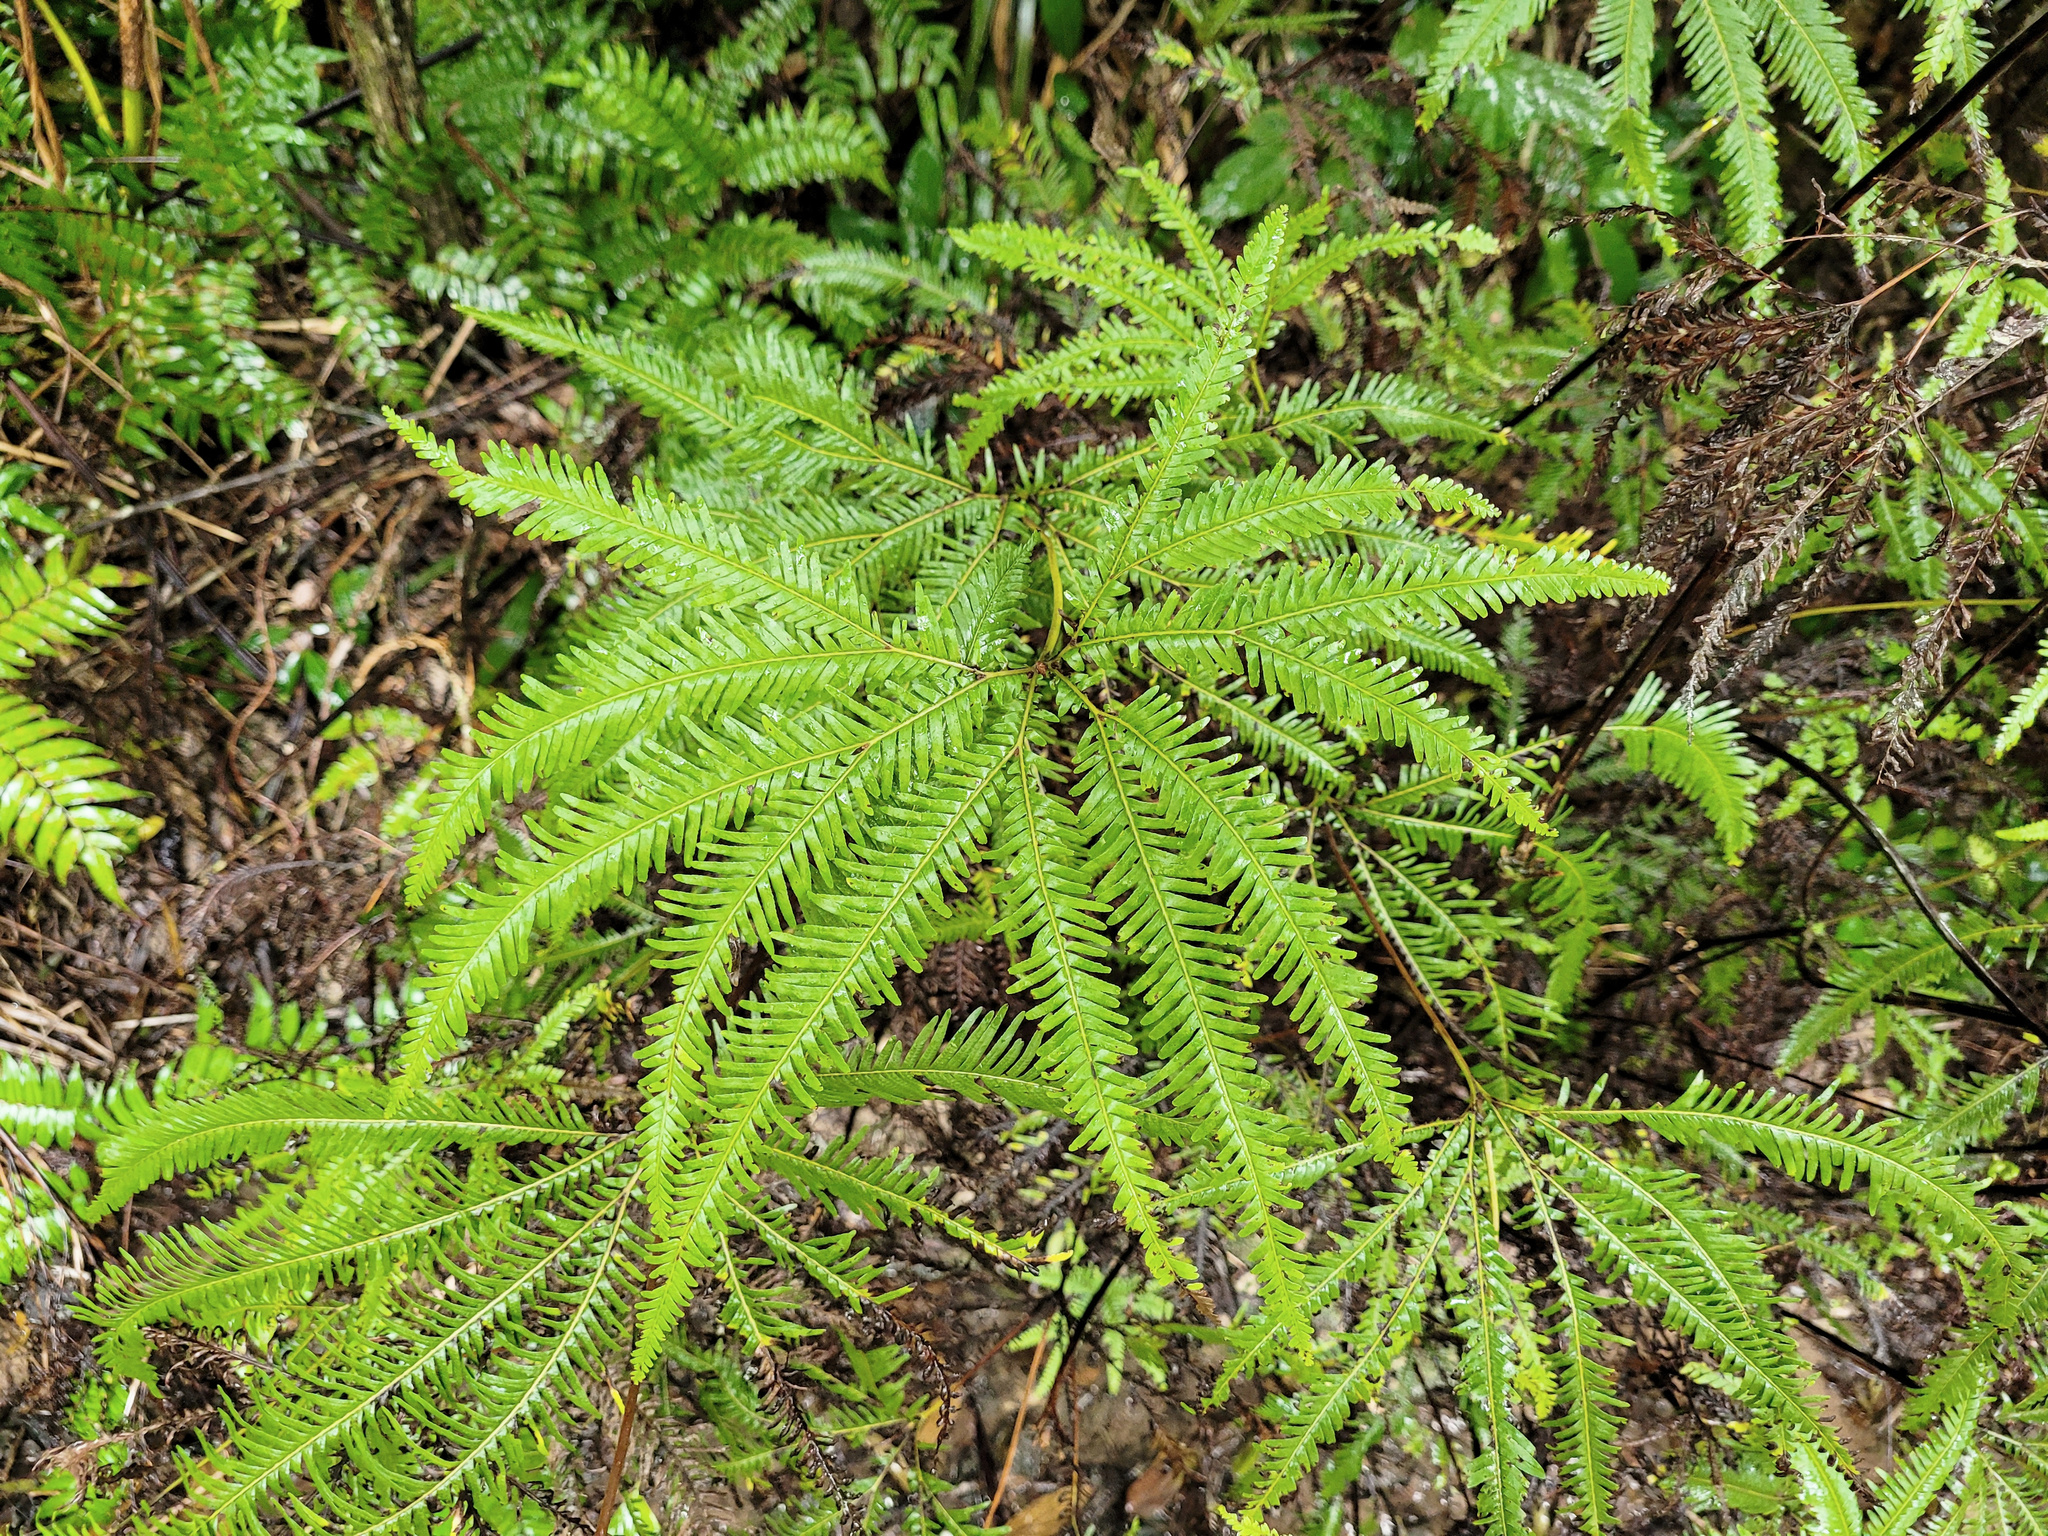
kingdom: Plantae
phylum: Tracheophyta
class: Polypodiopsida
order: Gleicheniales
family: Gleicheniaceae
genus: Sticherus
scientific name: Sticherus flabellatus
